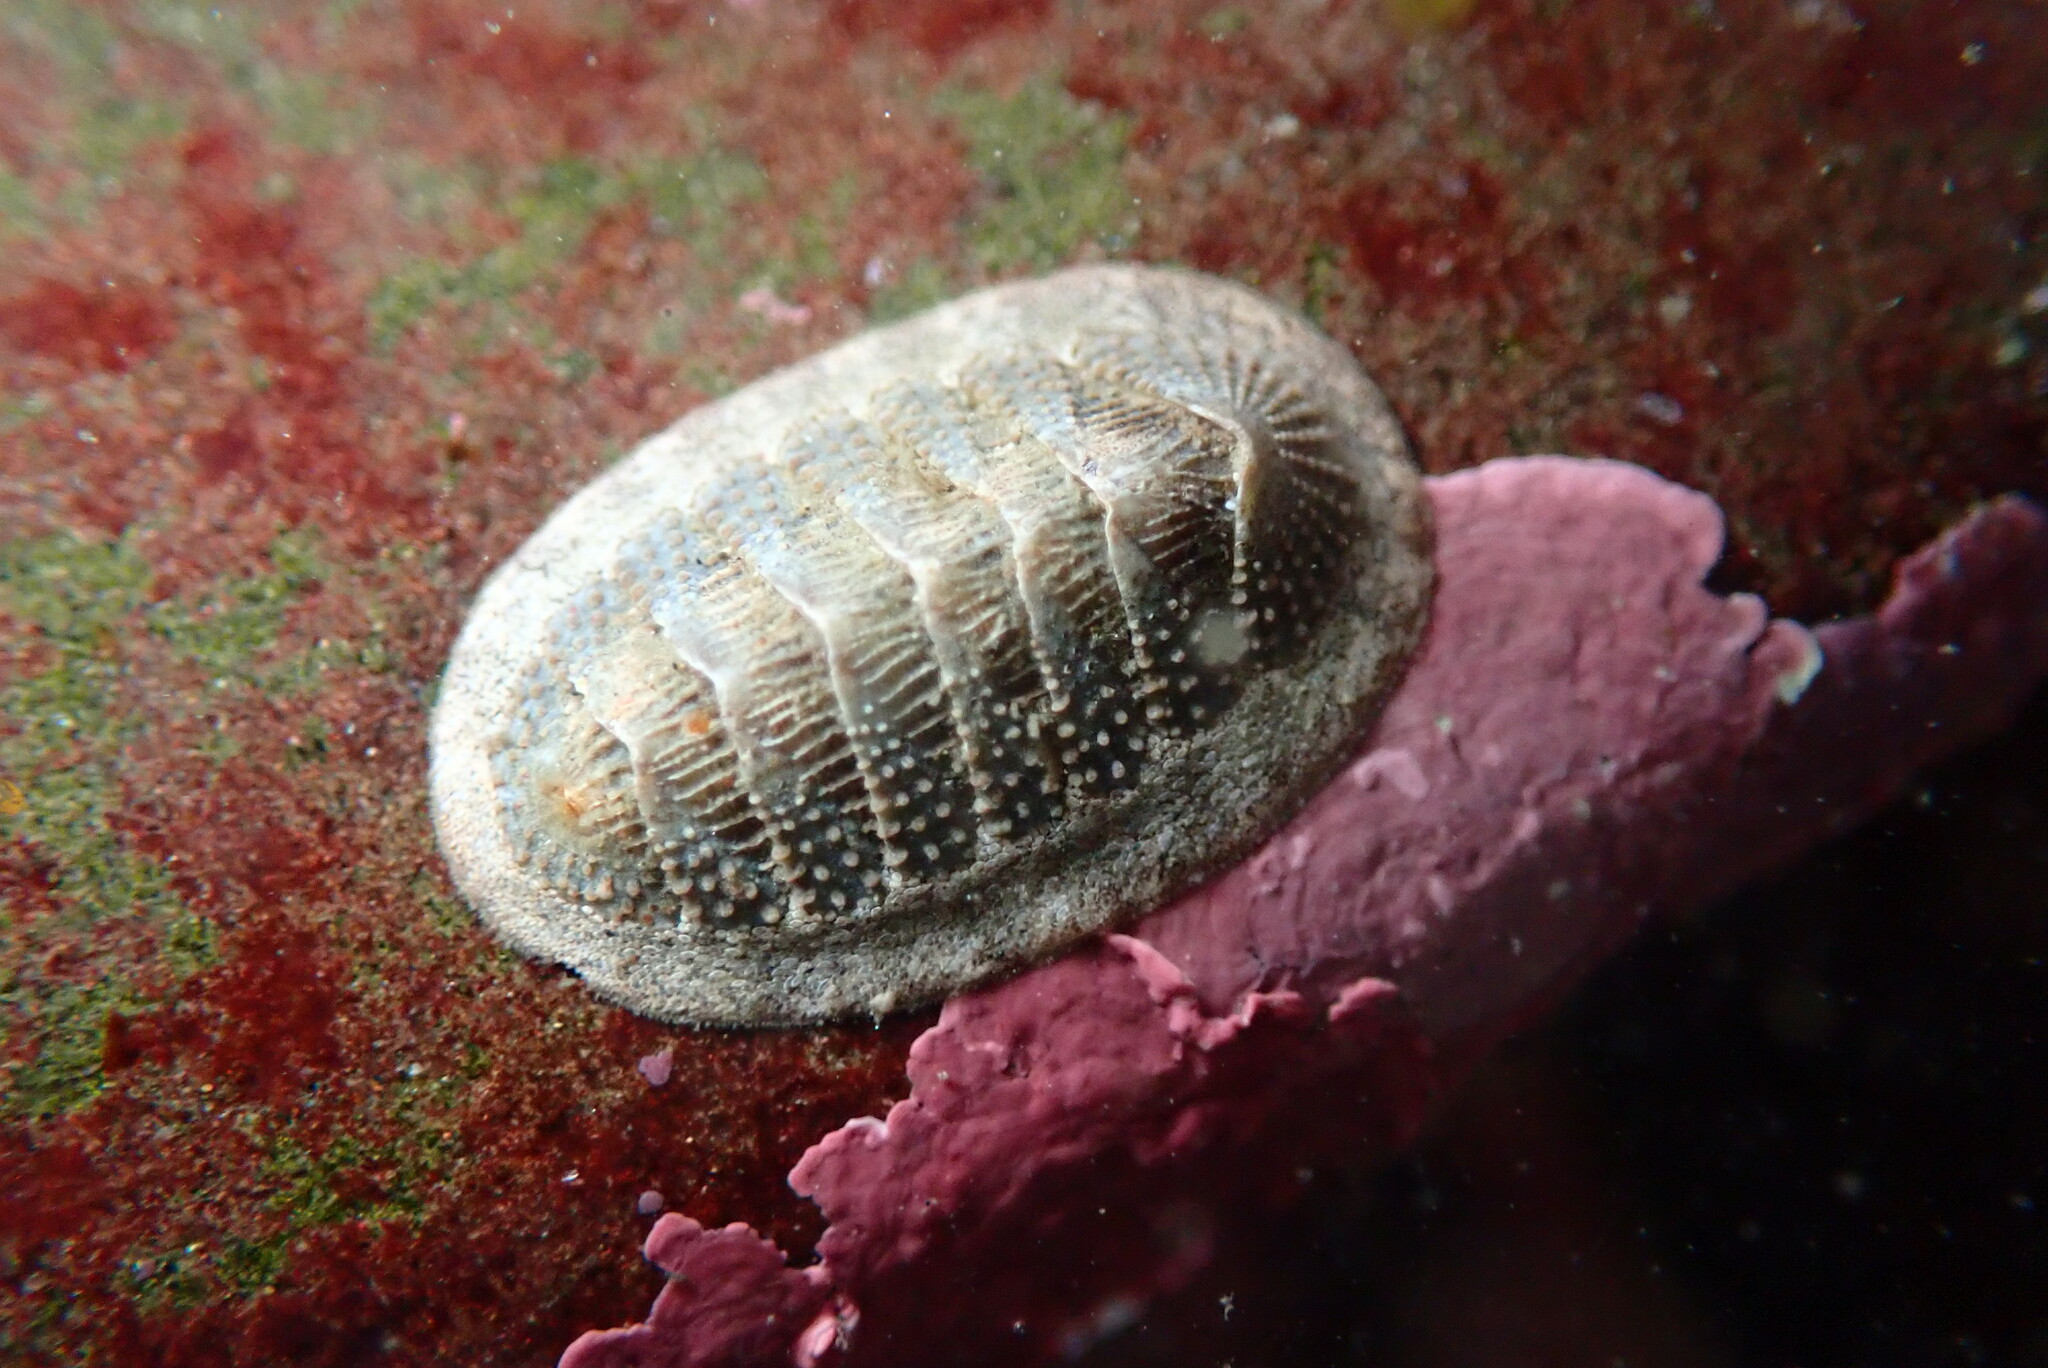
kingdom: Animalia
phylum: Mollusca
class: Polyplacophora
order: Chitonida
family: Ischnochitonidae
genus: Lepidozona
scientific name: Lepidozona cooperi
